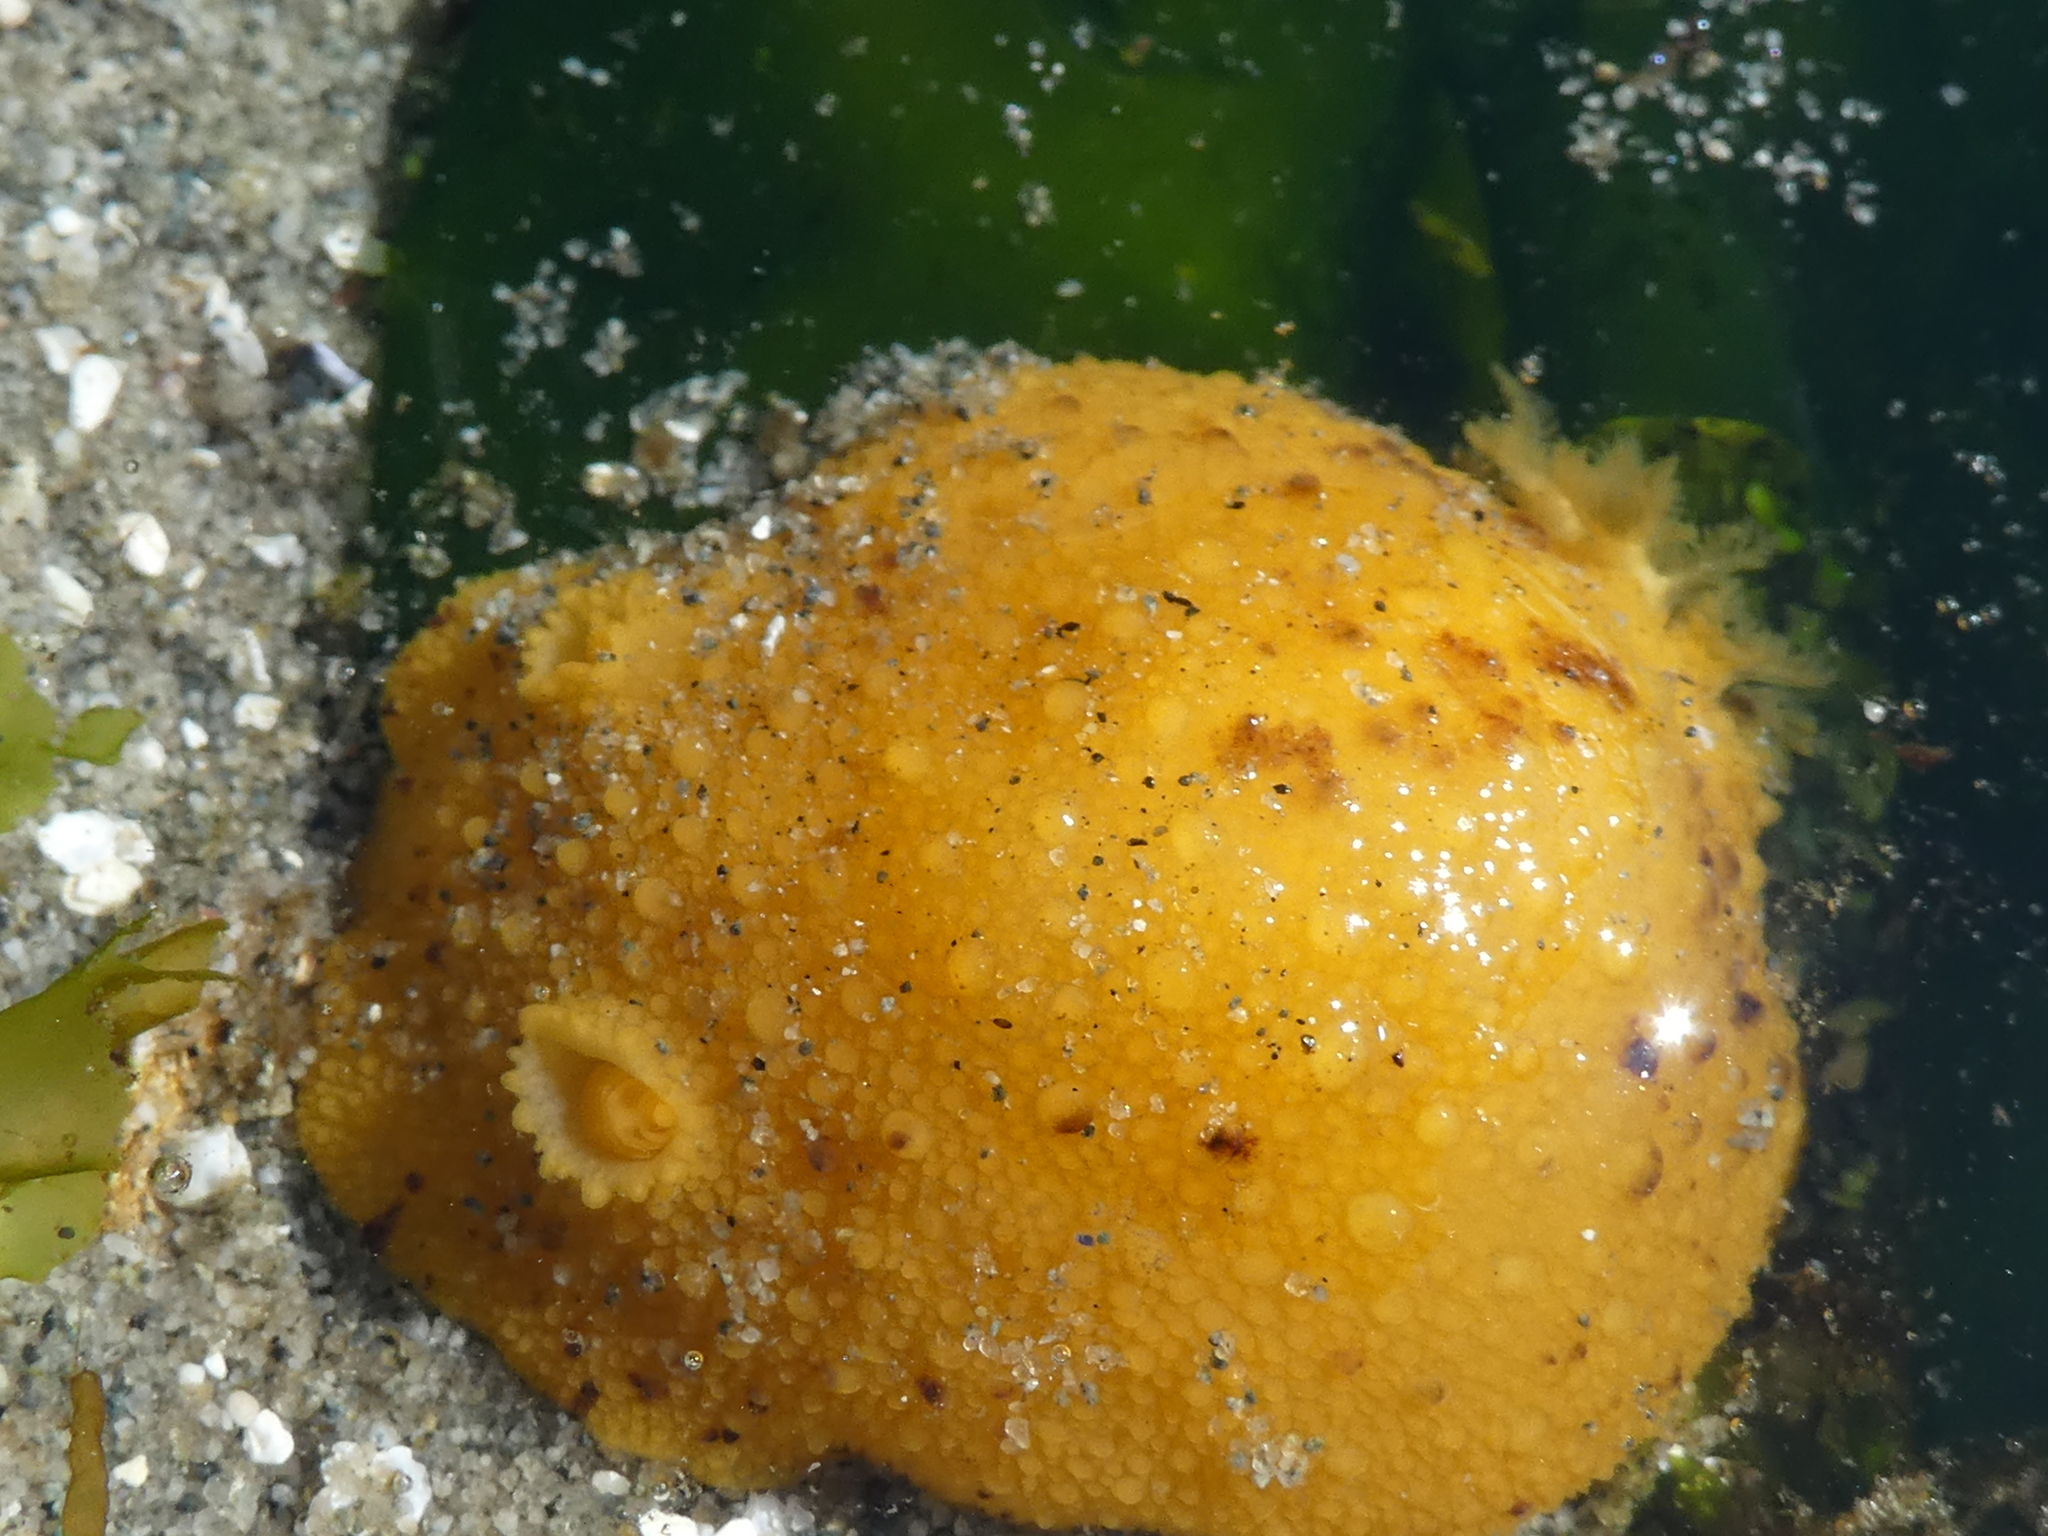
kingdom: Animalia
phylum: Mollusca
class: Gastropoda
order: Nudibranchia
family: Dorididae
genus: Doris
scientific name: Doris montereyensis
